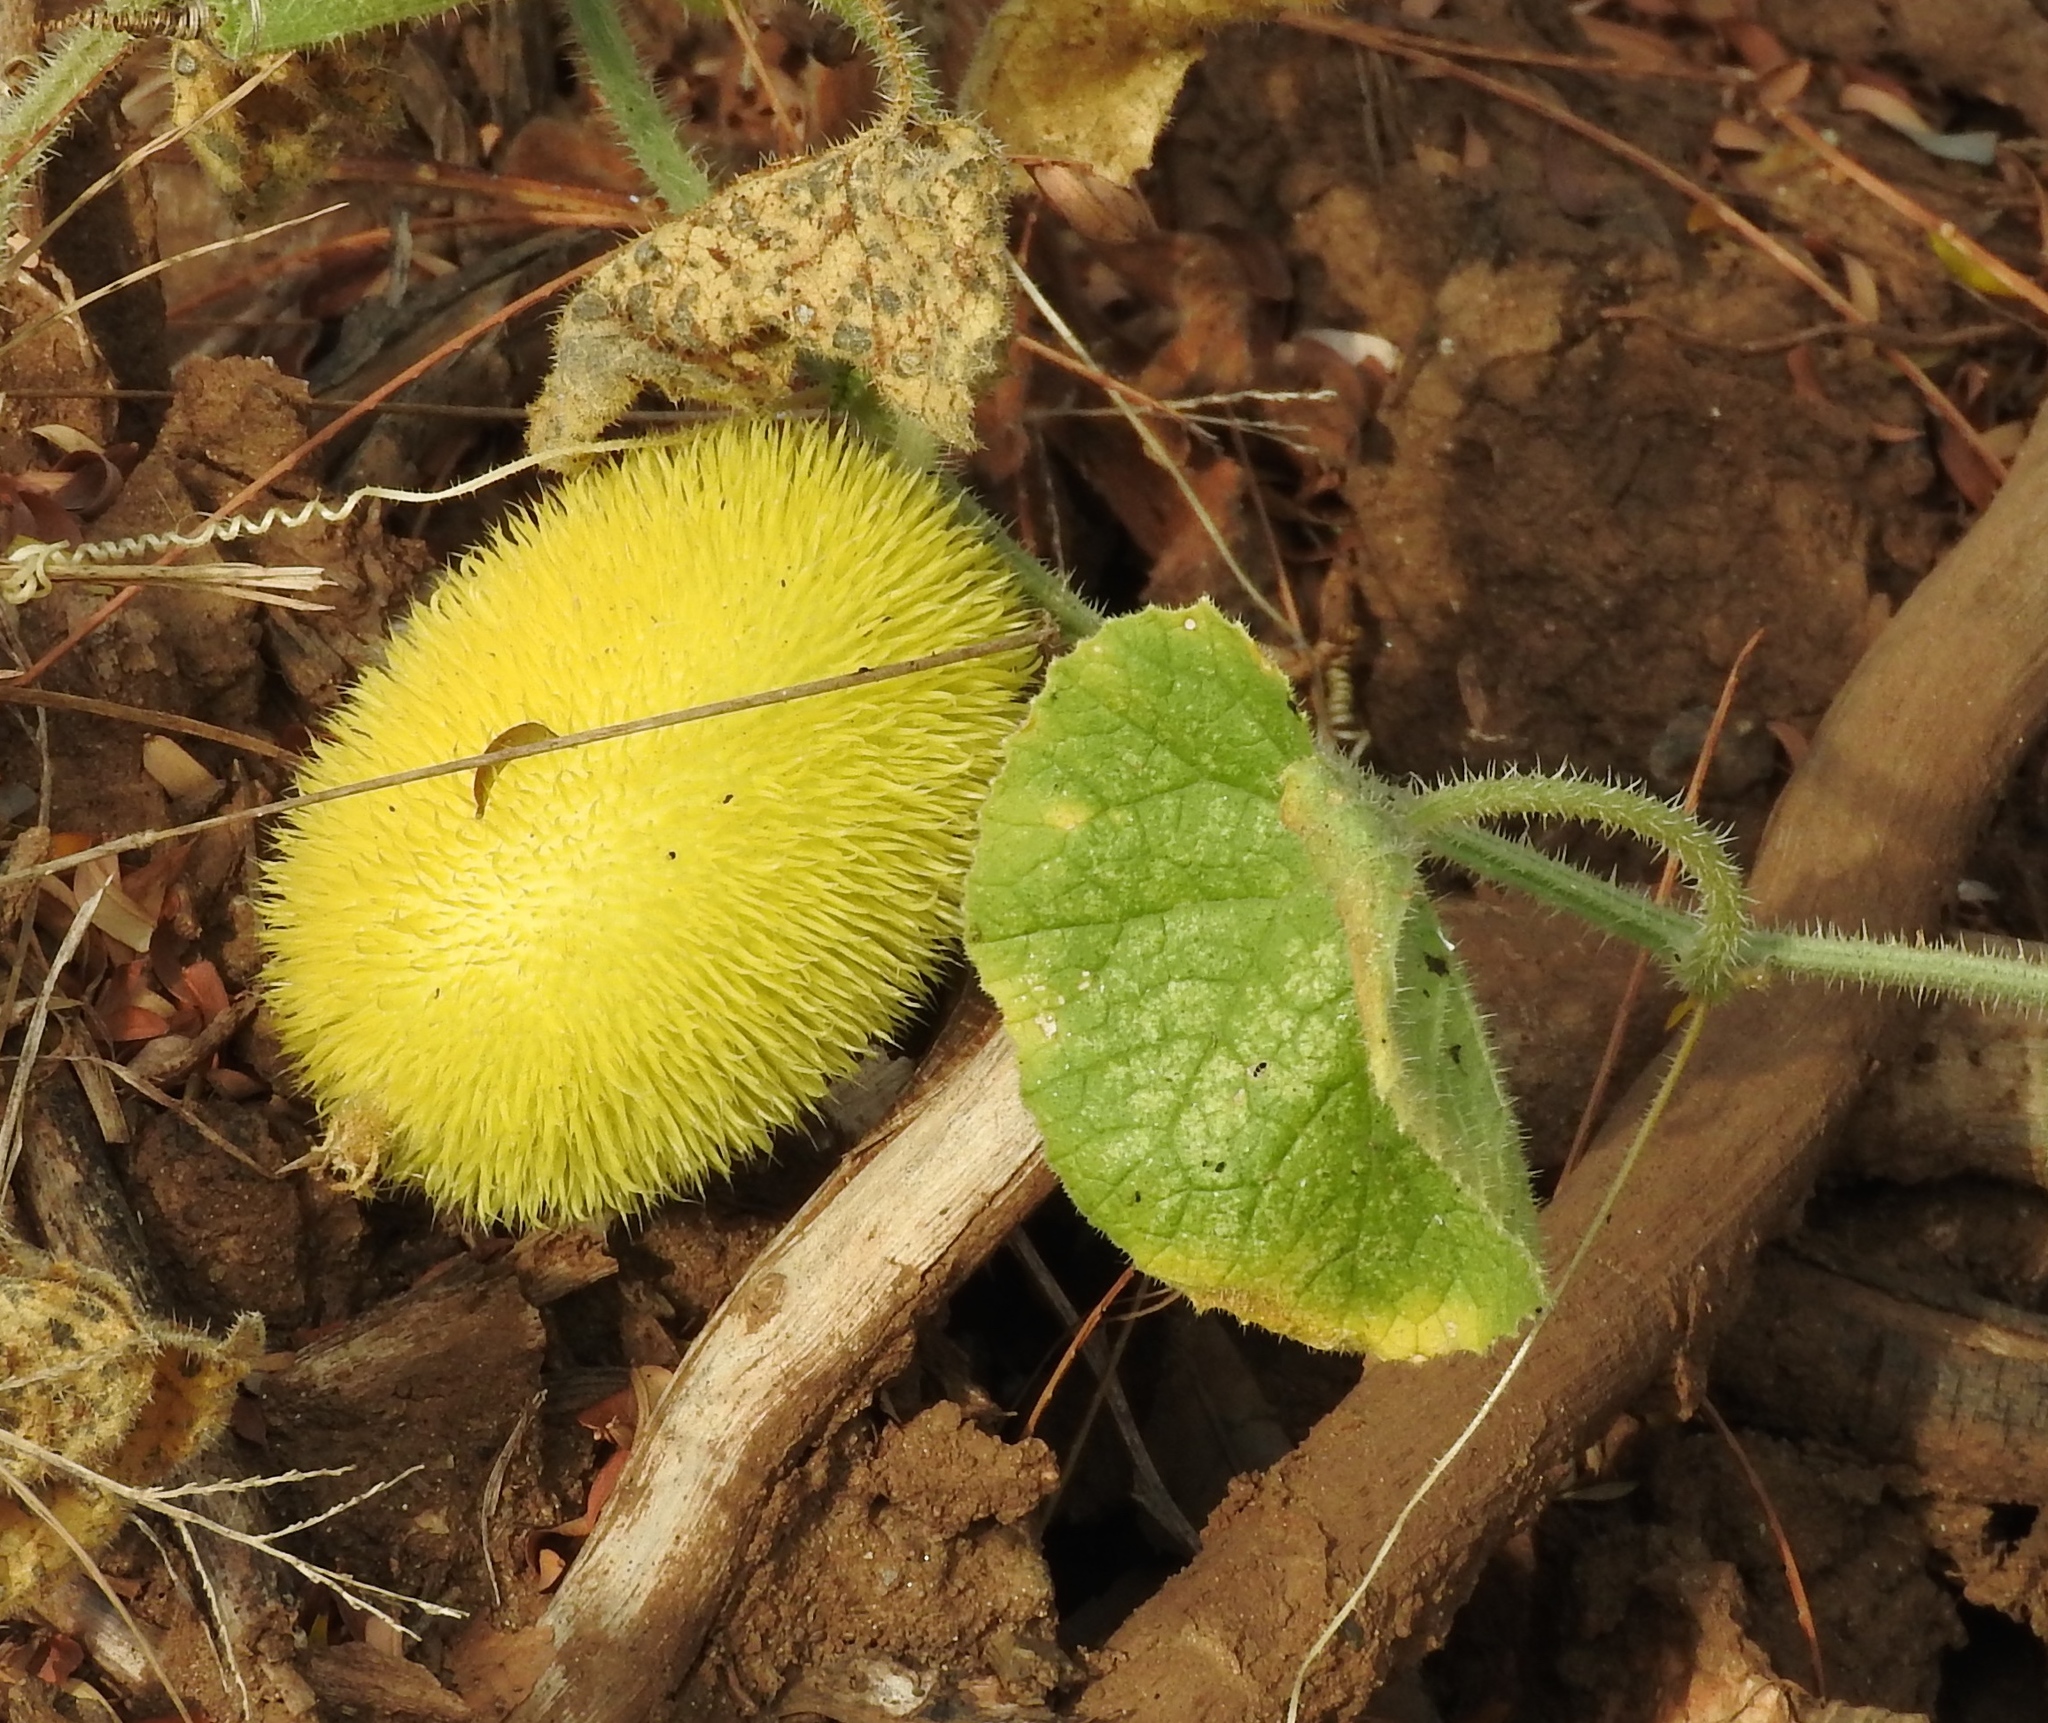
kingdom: Plantae
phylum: Tracheophyta
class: Magnoliopsida
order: Cucurbitales
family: Cucurbitaceae
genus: Cucumis
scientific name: Cucumis dipsaceus
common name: Hedgehog gourd
